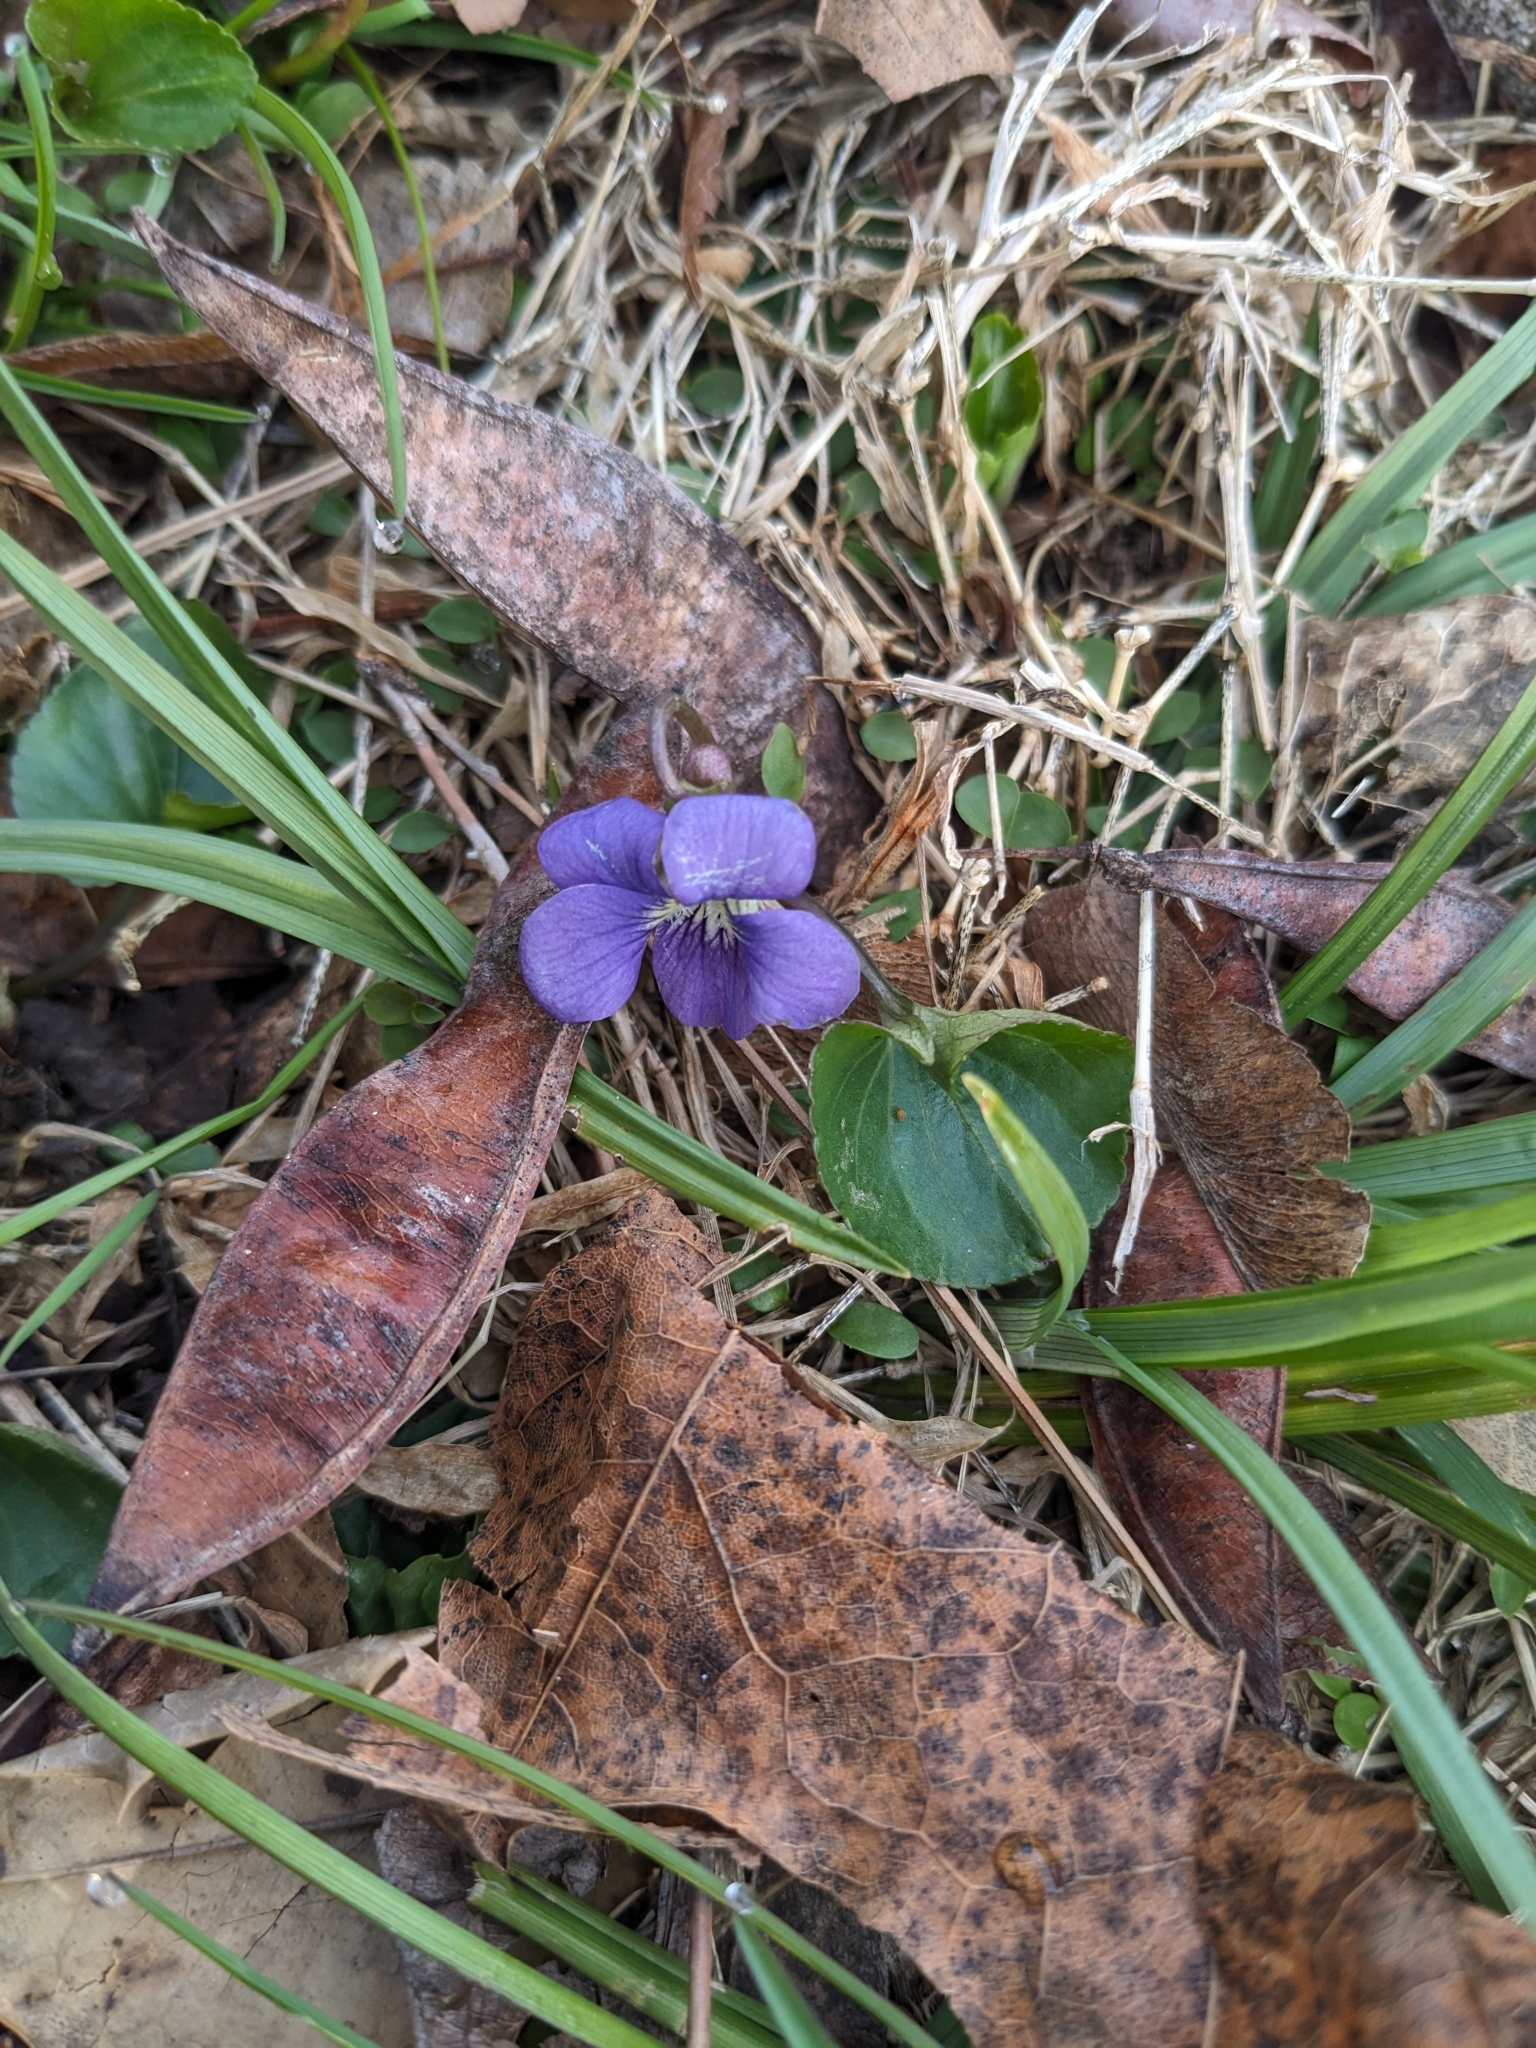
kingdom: Plantae
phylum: Tracheophyta
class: Magnoliopsida
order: Malpighiales
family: Violaceae
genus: Viola
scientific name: Viola sororia
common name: Dooryard violet
